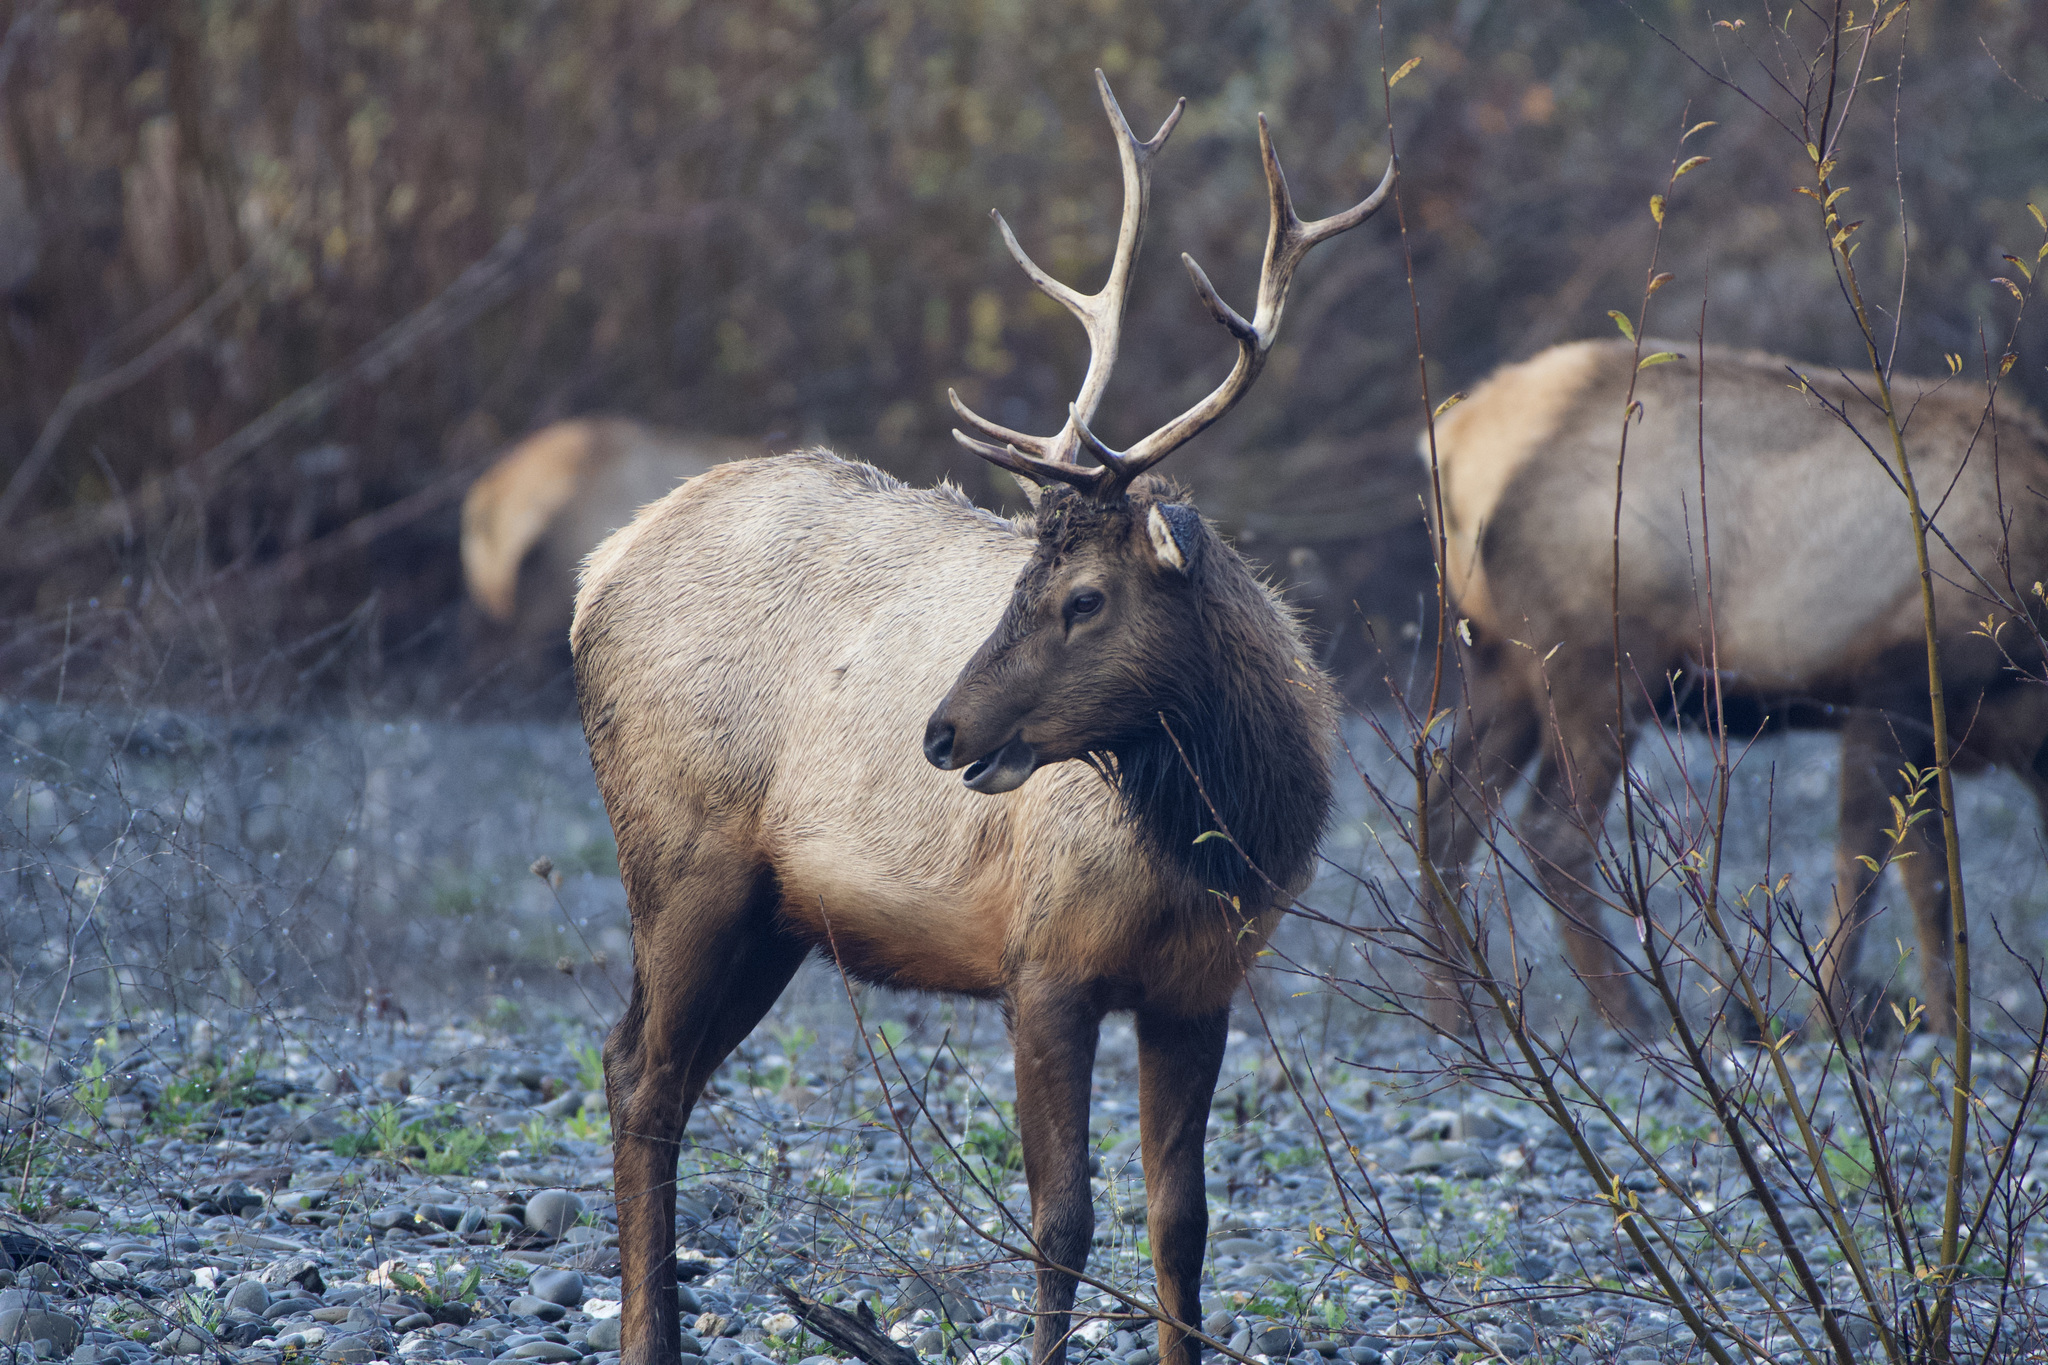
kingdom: Animalia
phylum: Chordata
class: Mammalia
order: Artiodactyla
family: Cervidae
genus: Cervus
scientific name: Cervus elaphus
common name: Red deer
